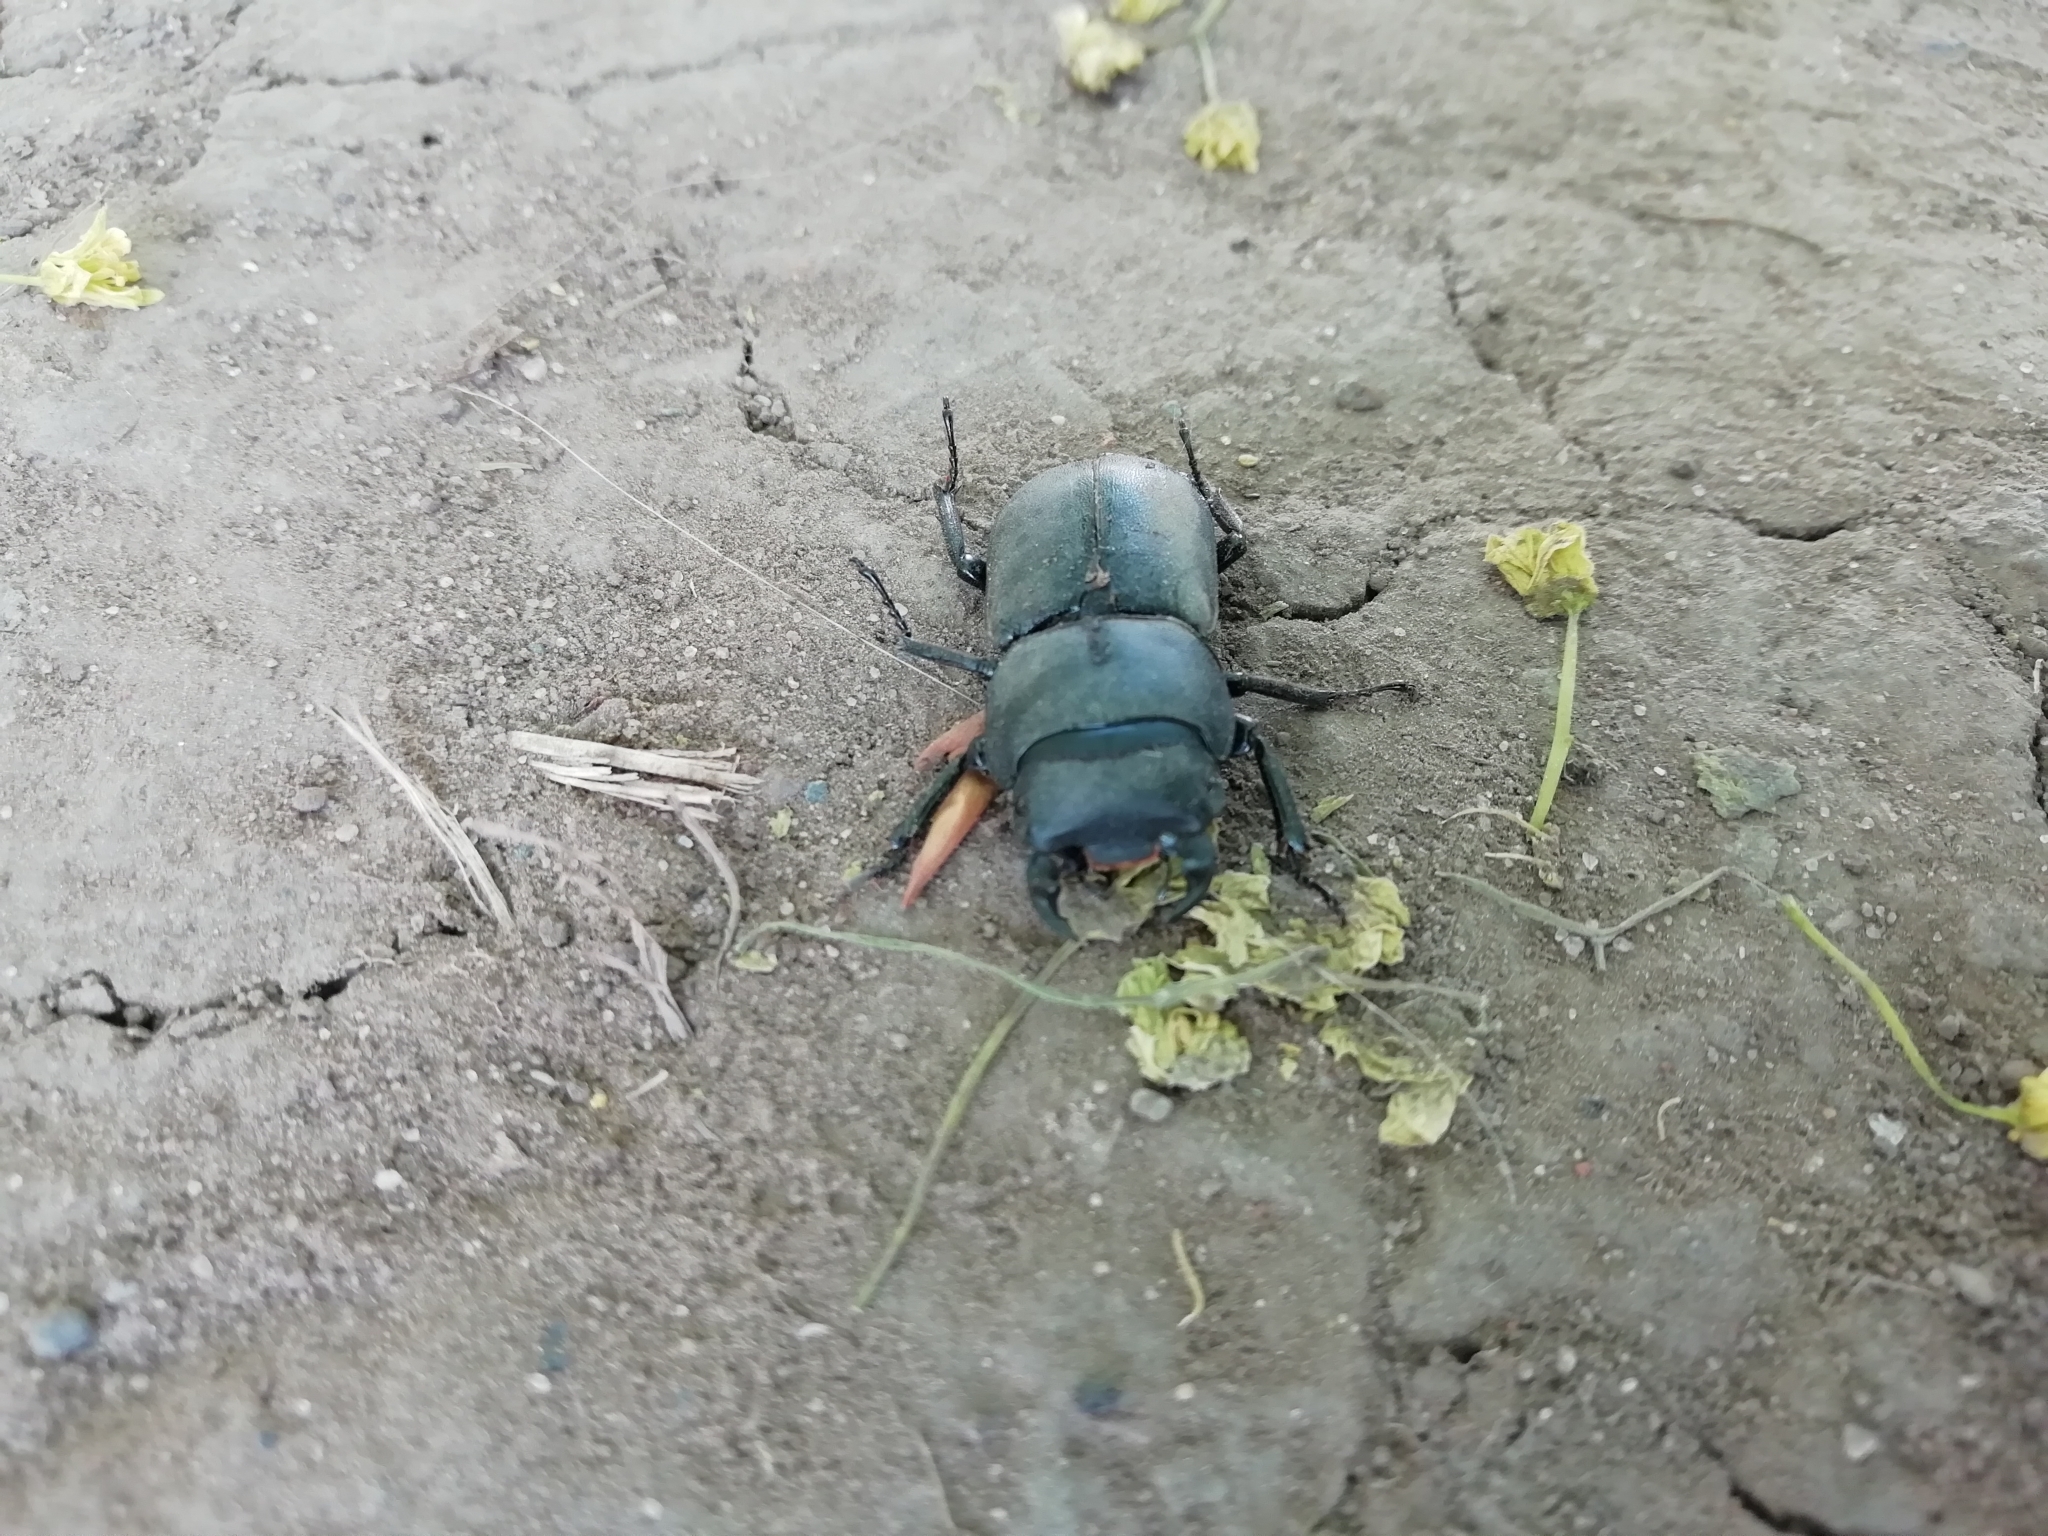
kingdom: Animalia
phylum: Arthropoda
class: Insecta
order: Coleoptera
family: Lucanidae
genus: Dorcus
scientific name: Dorcus parallelipipedus
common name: Lesser stag beetle
